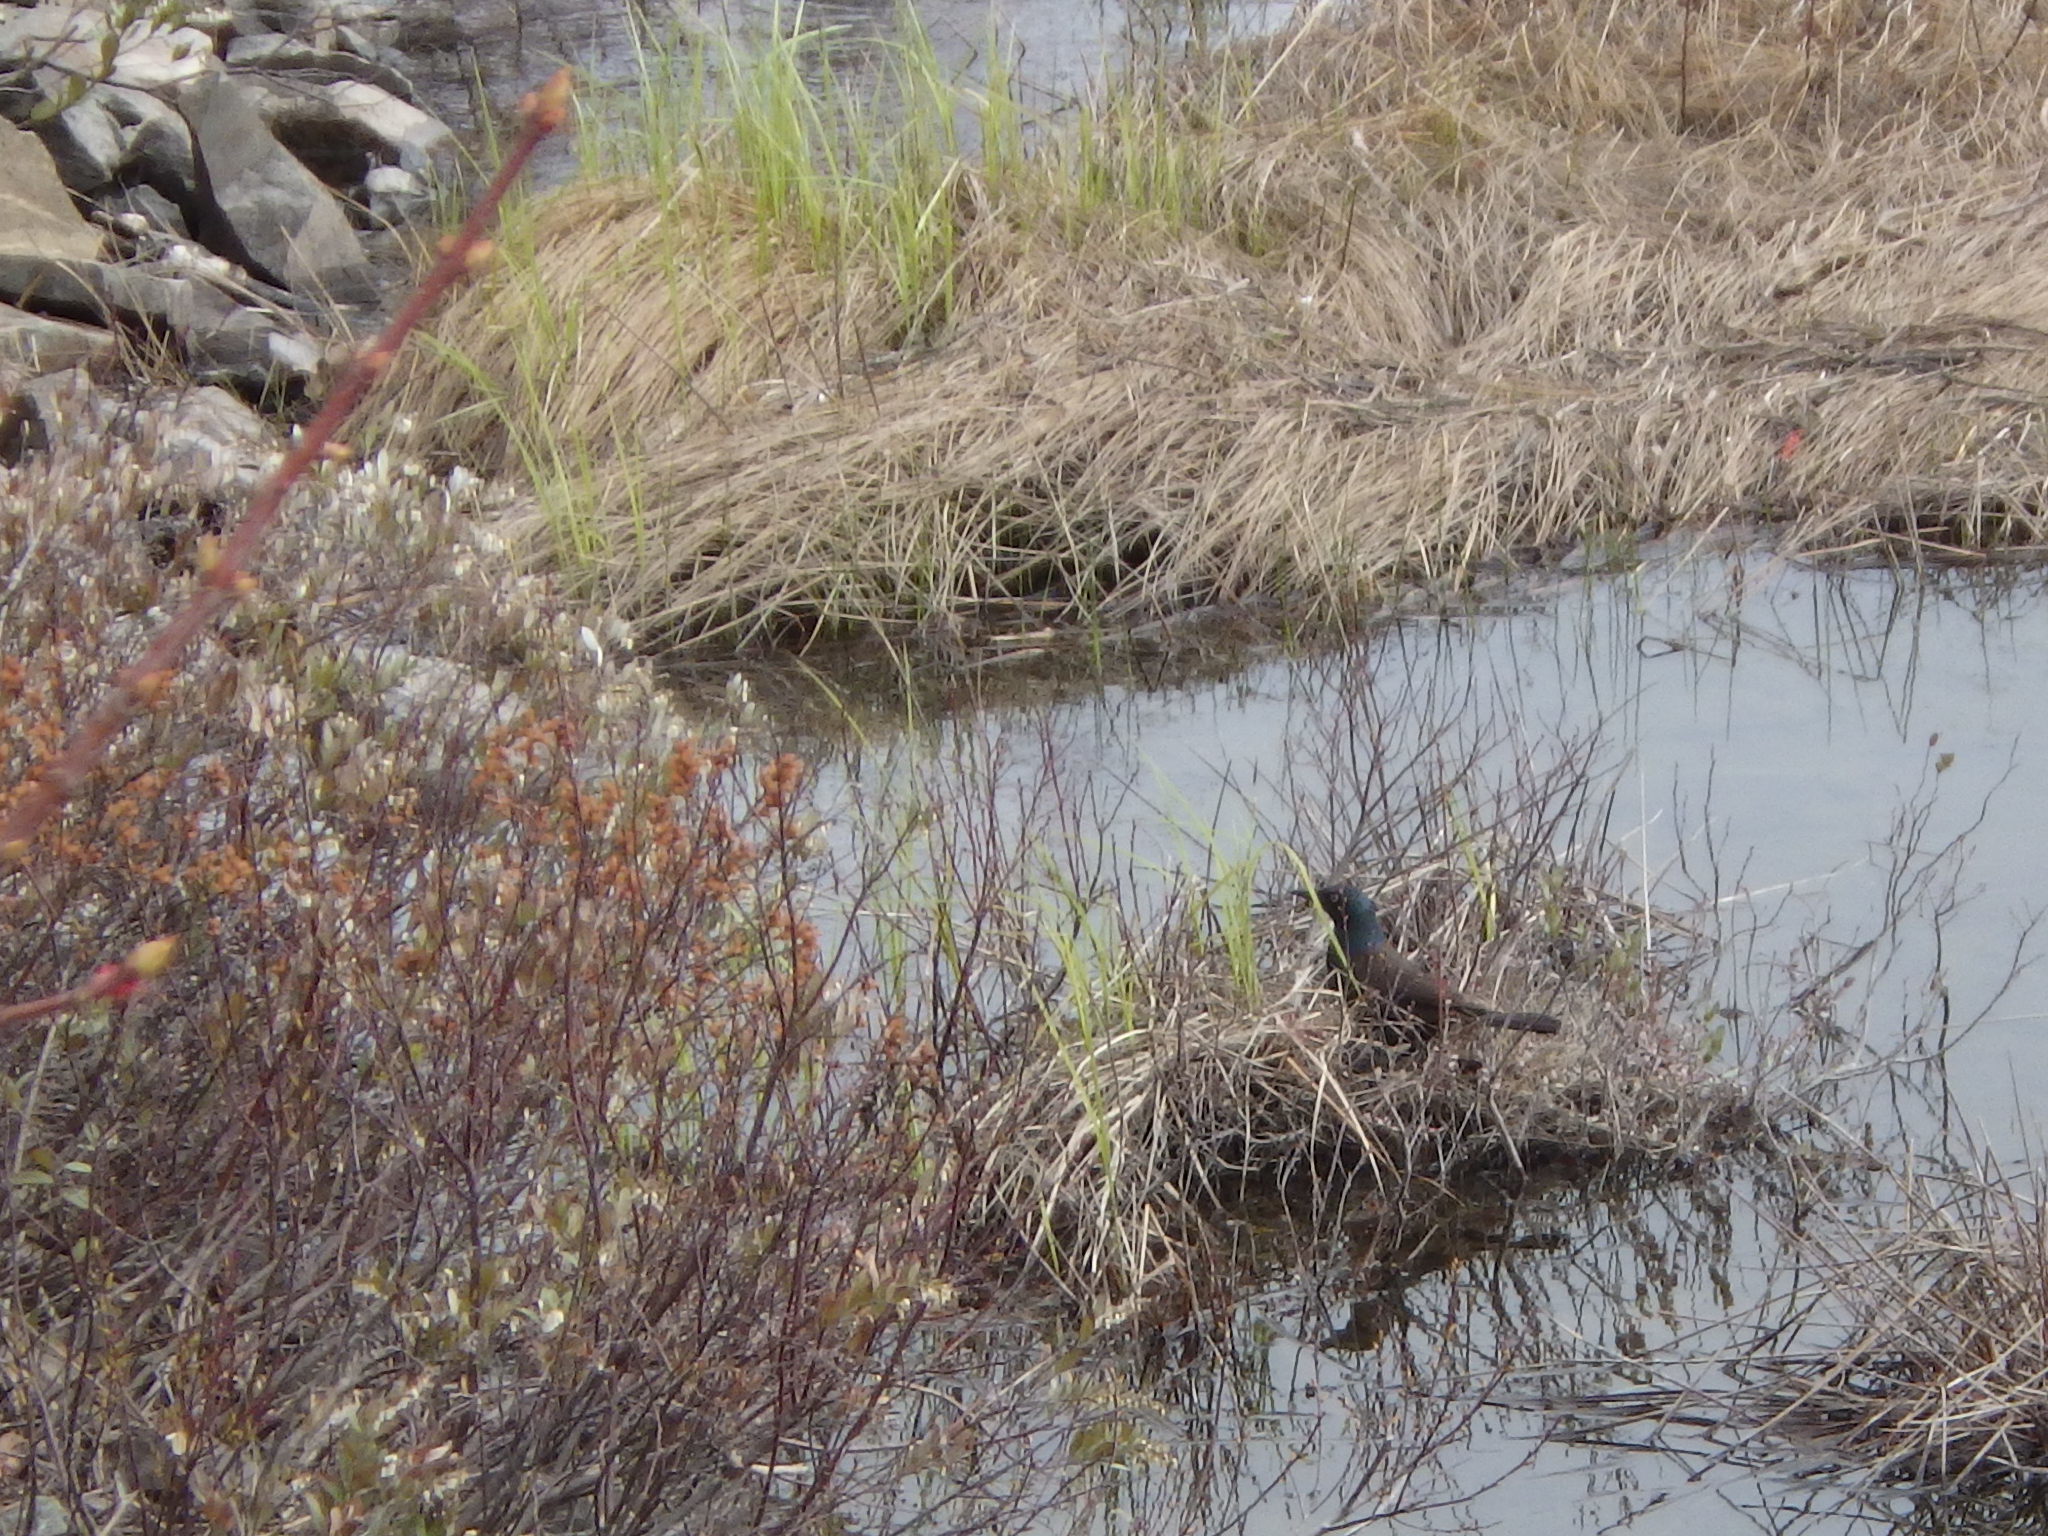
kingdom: Animalia
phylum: Chordata
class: Aves
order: Passeriformes
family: Icteridae
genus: Quiscalus
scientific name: Quiscalus quiscula
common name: Common grackle
